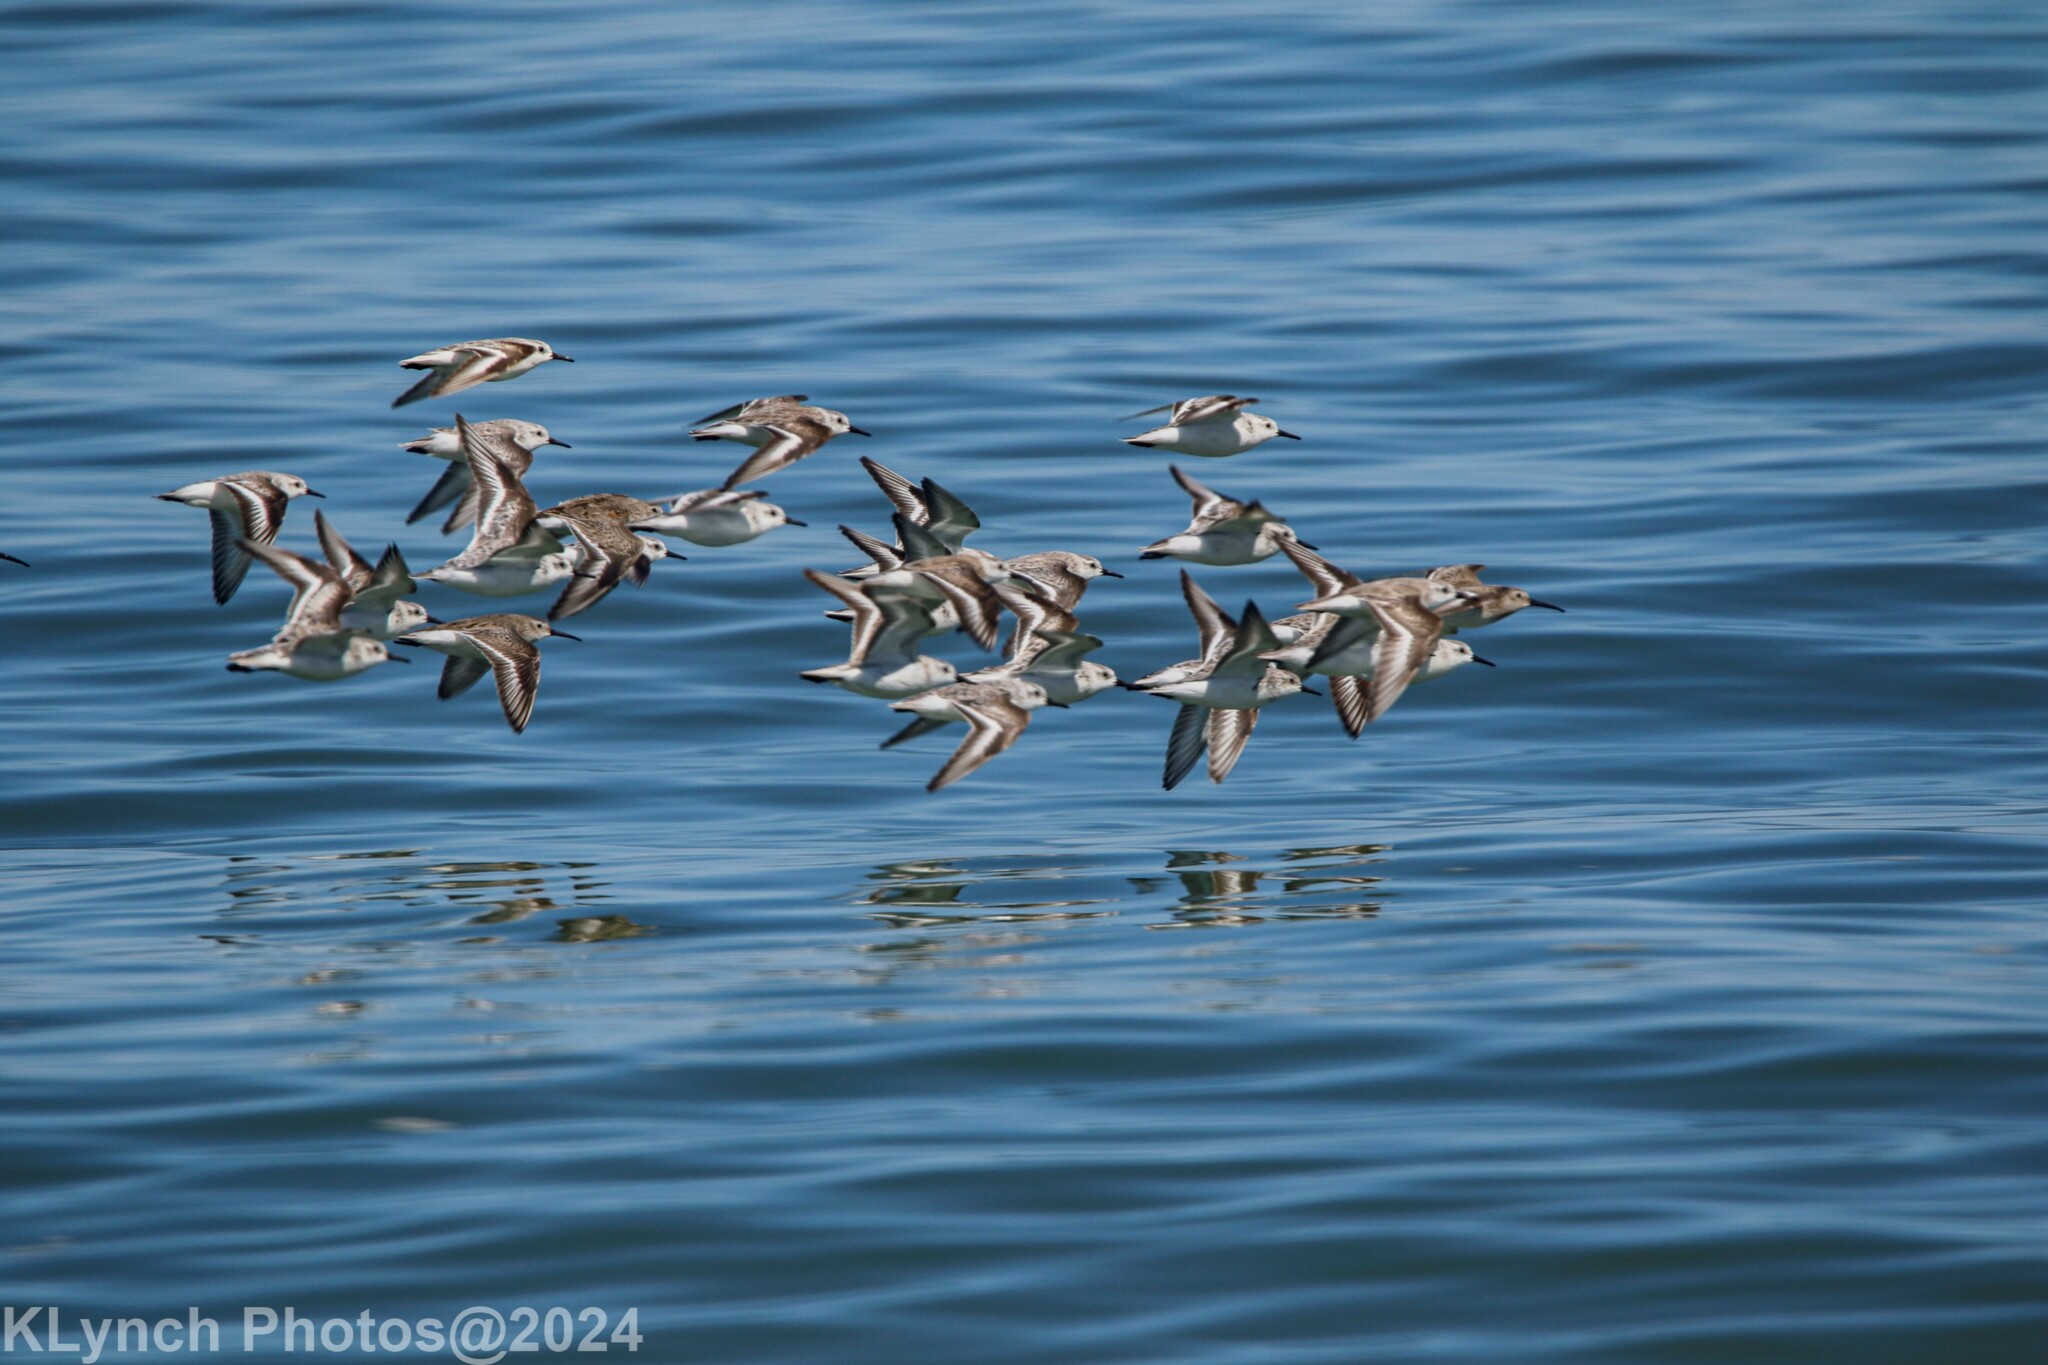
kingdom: Animalia
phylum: Chordata
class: Aves
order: Charadriiformes
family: Scolopacidae
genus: Calidris
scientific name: Calidris alba
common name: Sanderling
